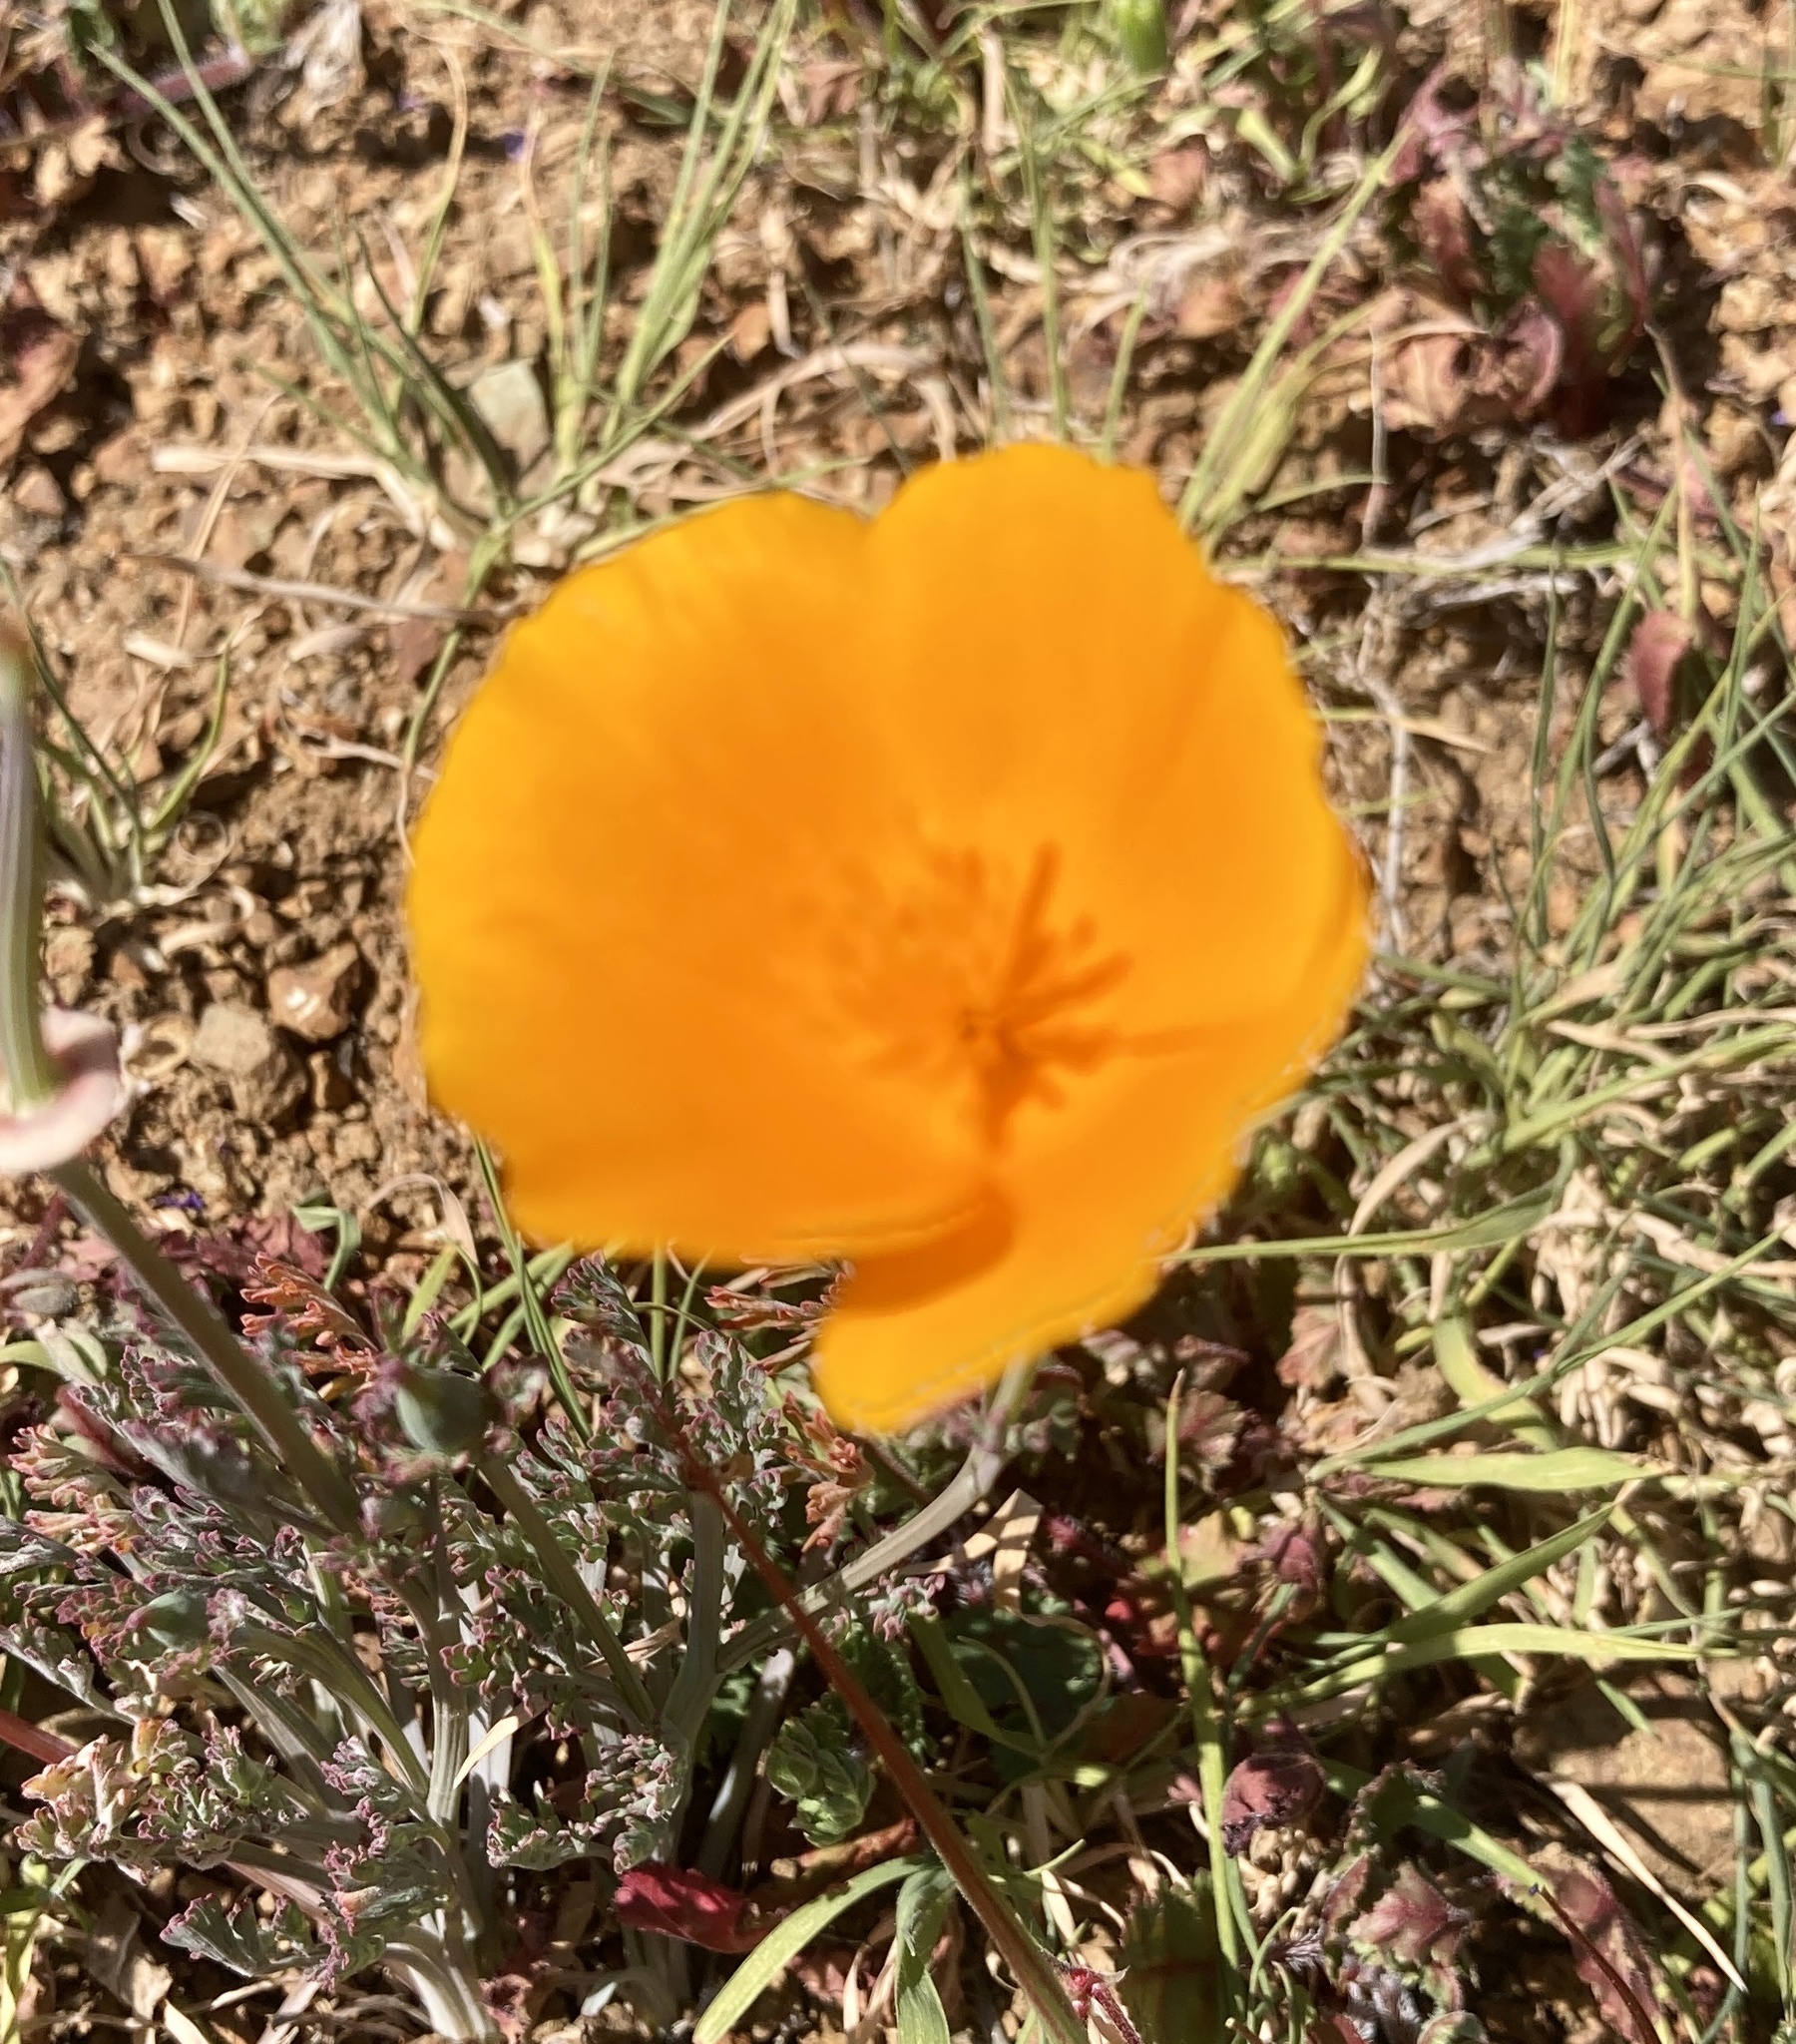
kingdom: Plantae
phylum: Tracheophyta
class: Magnoliopsida
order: Ranunculales
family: Papaveraceae
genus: Eschscholzia
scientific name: Eschscholzia californica
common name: California poppy
